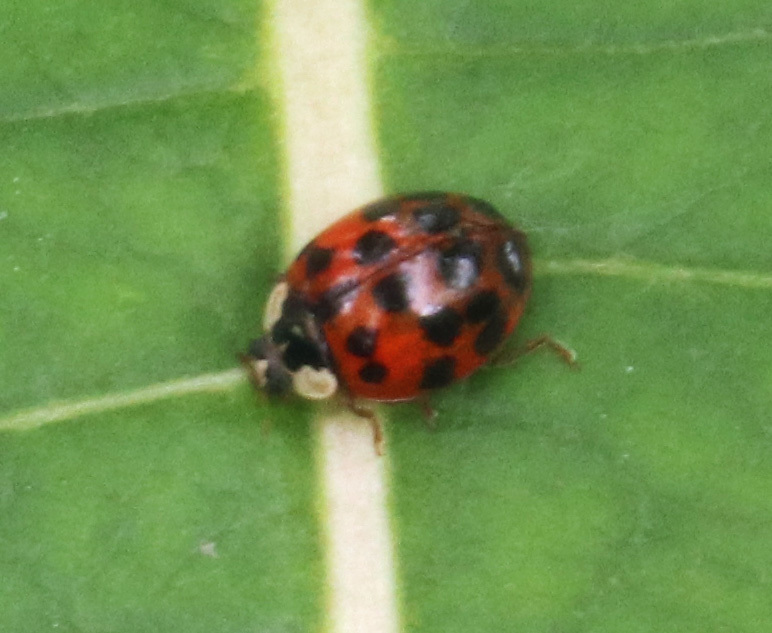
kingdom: Animalia
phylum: Arthropoda
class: Insecta
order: Coleoptera
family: Coccinellidae
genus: Harmonia
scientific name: Harmonia axyridis
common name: Harlequin ladybird
